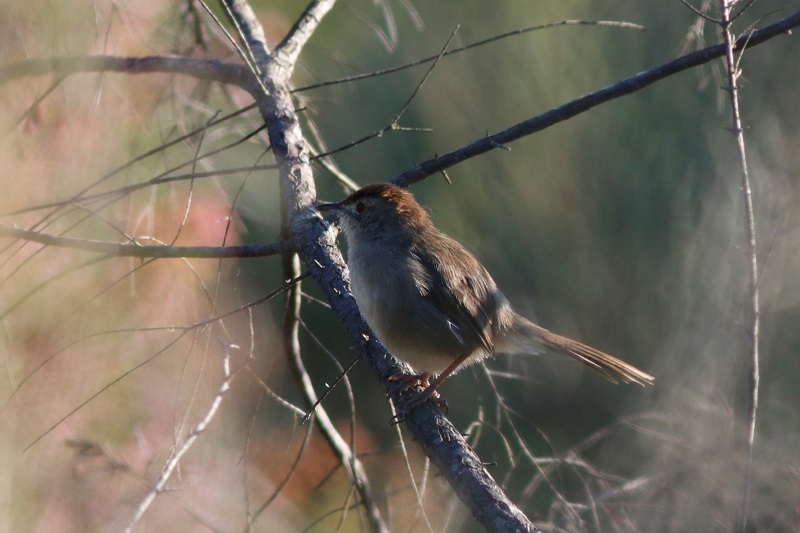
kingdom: Animalia
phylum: Chordata
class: Aves
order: Passeriformes
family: Cisticolidae
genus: Cisticola
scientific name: Cisticola fulvicapilla
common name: Neddicky
